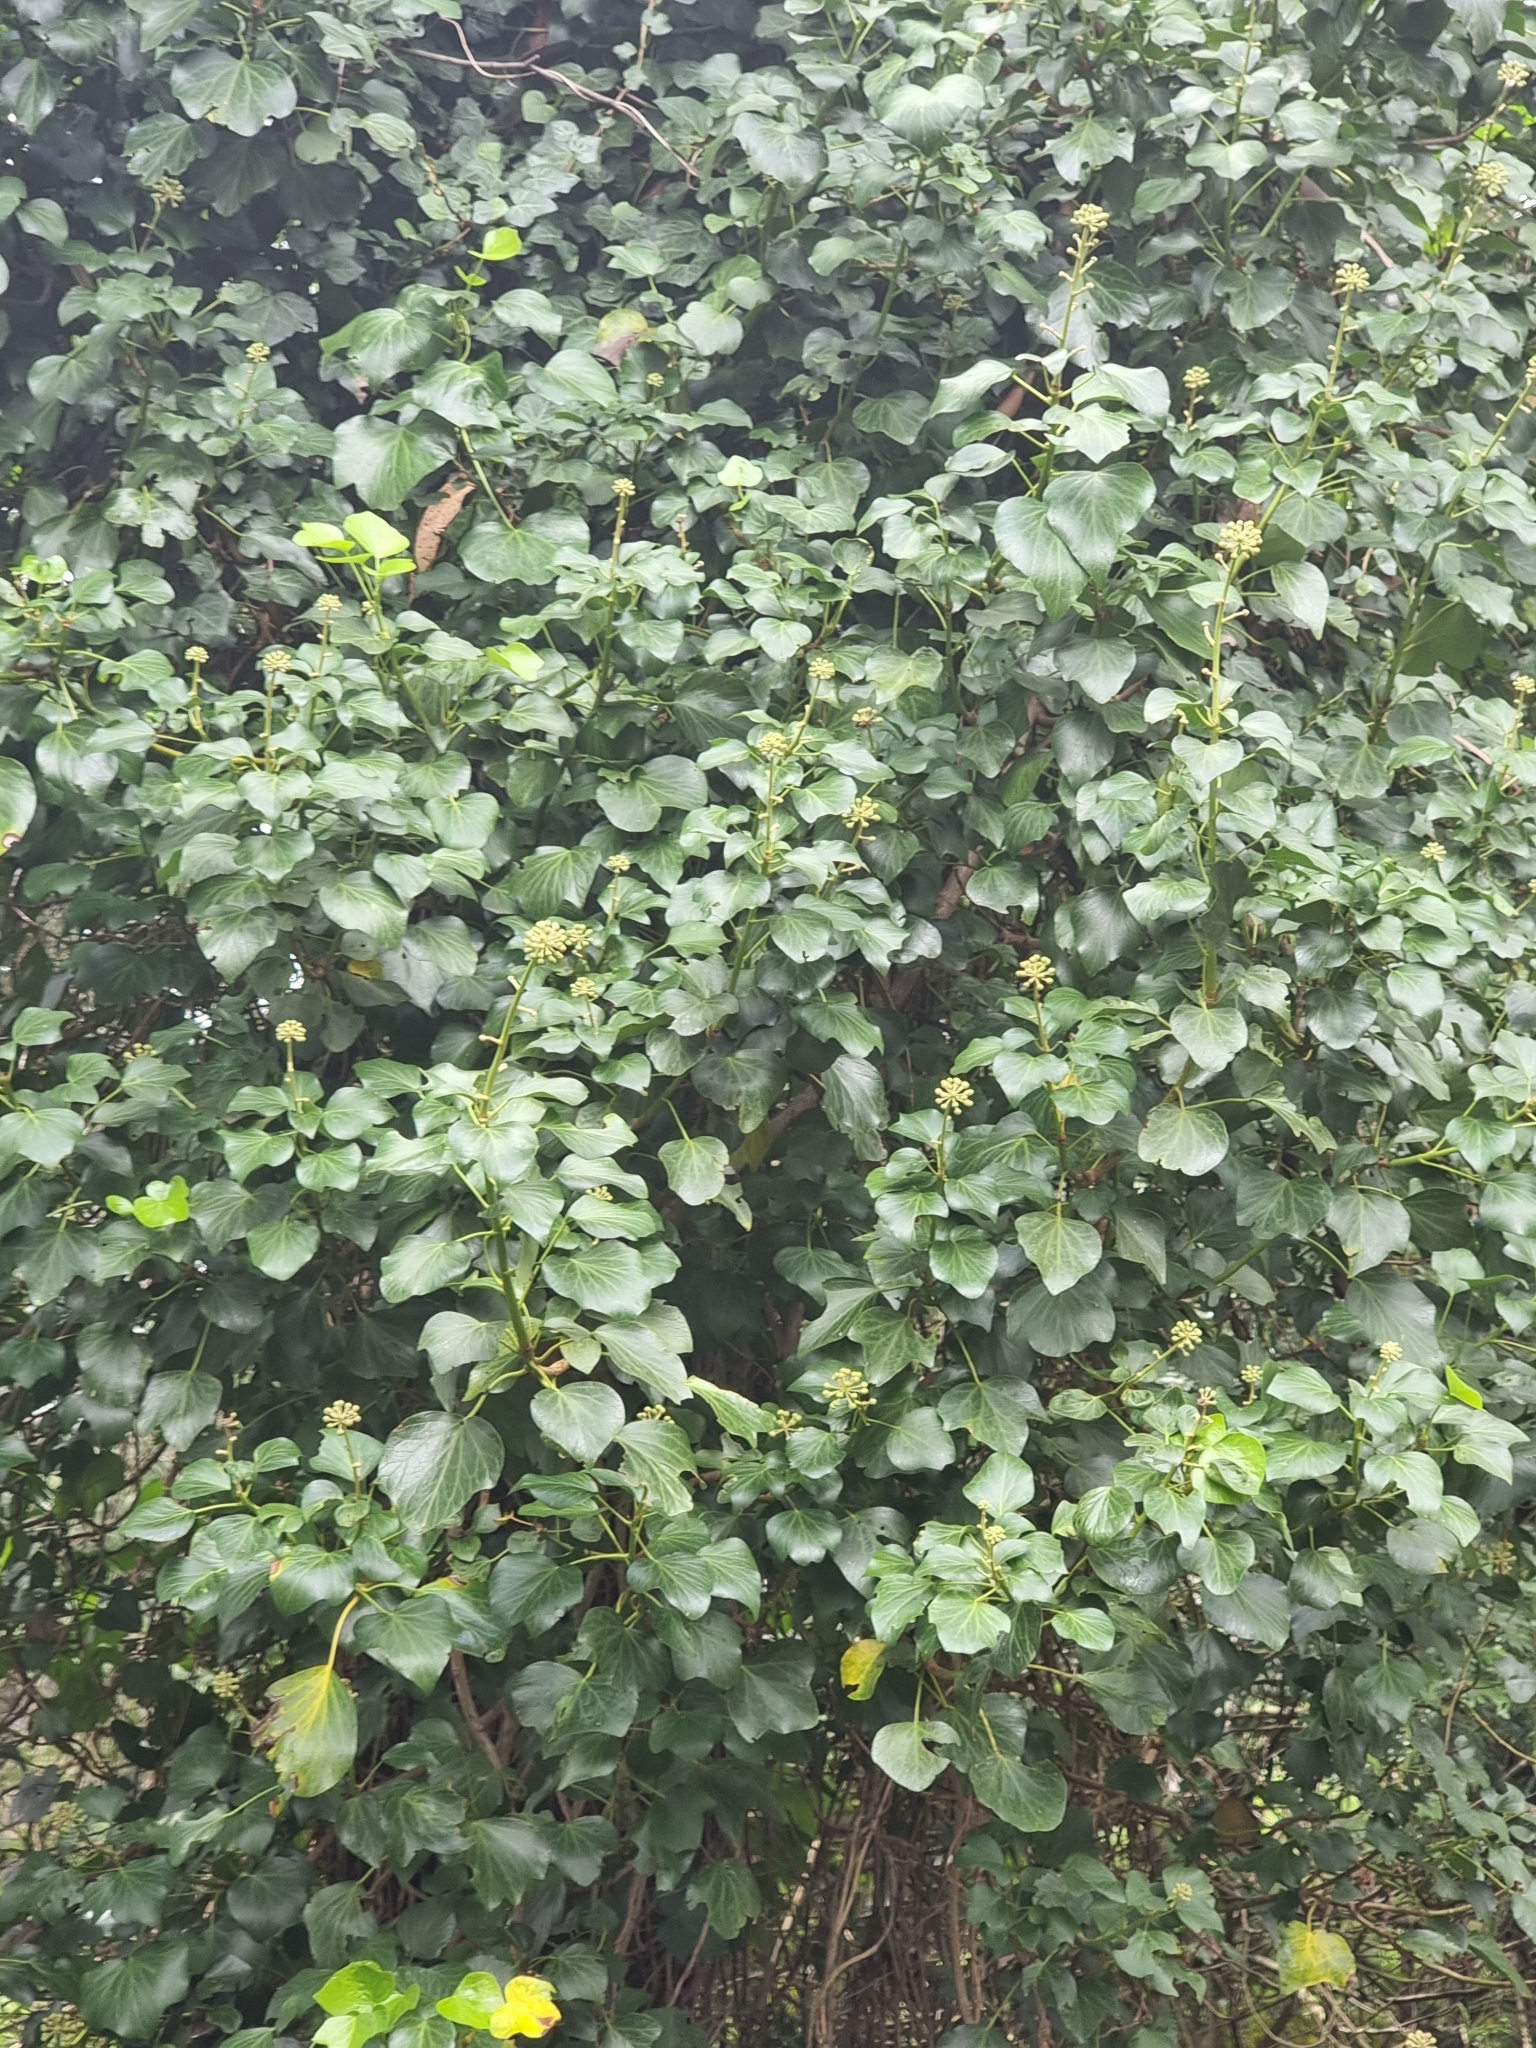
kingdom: Plantae
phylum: Tracheophyta
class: Magnoliopsida
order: Apiales
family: Araliaceae
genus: Hedera
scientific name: Hedera maderensis
